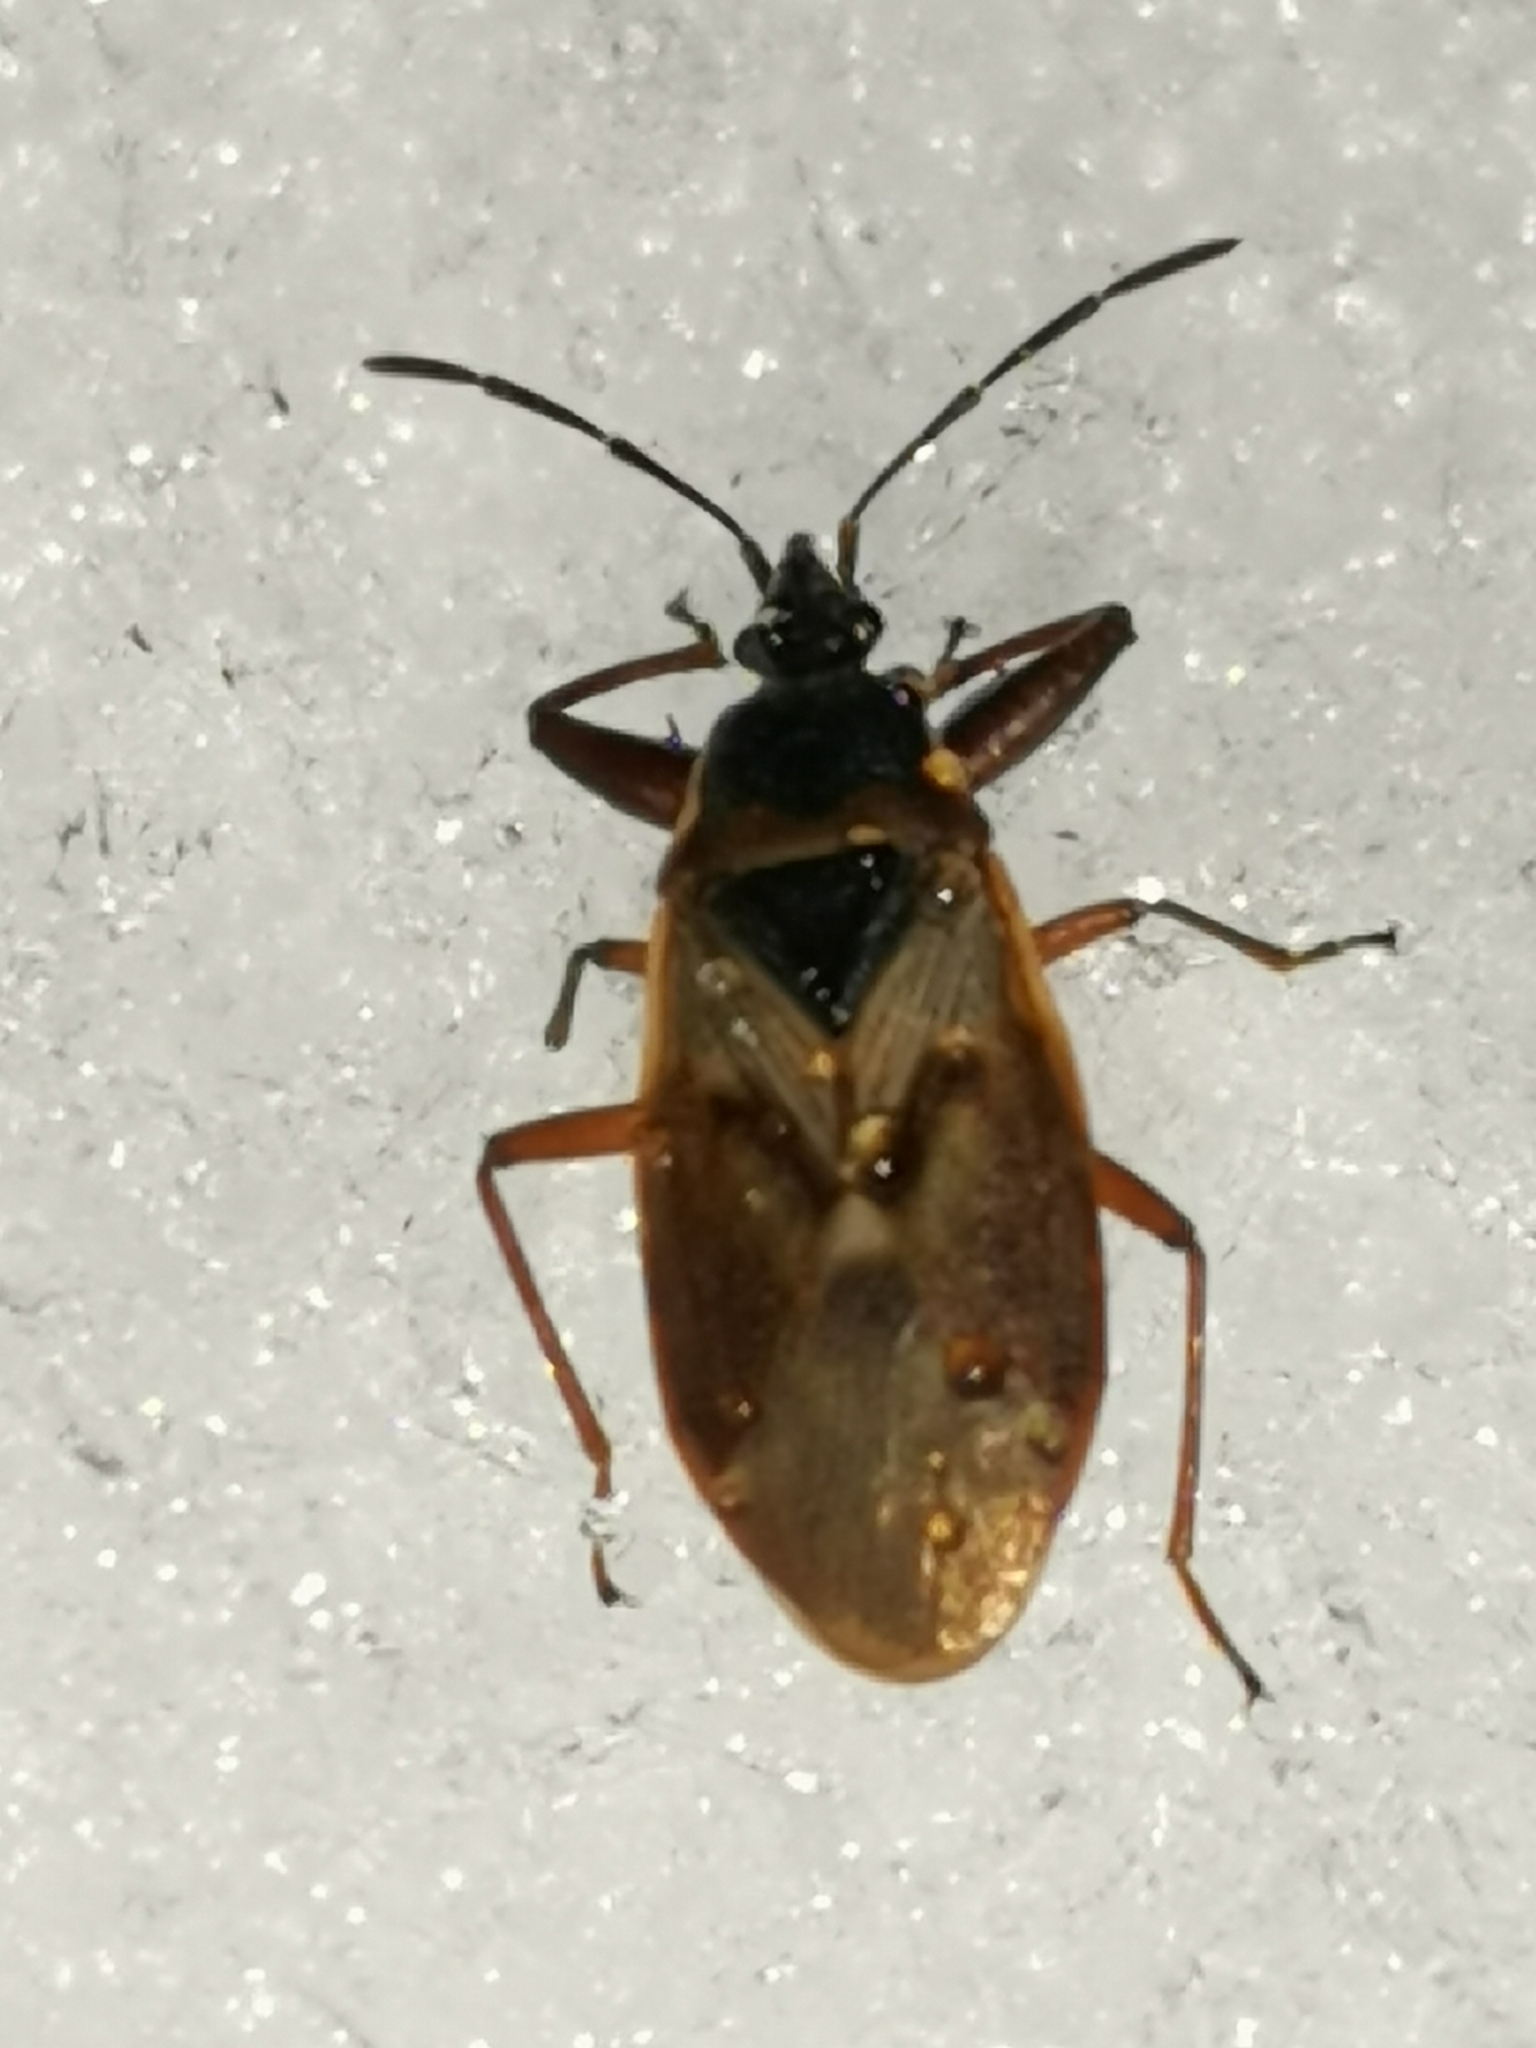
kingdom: Animalia
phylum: Arthropoda
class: Insecta
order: Hemiptera
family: Rhyparochromidae
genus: Gastrodes
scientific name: Gastrodes abietum
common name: Spruce cone bug
